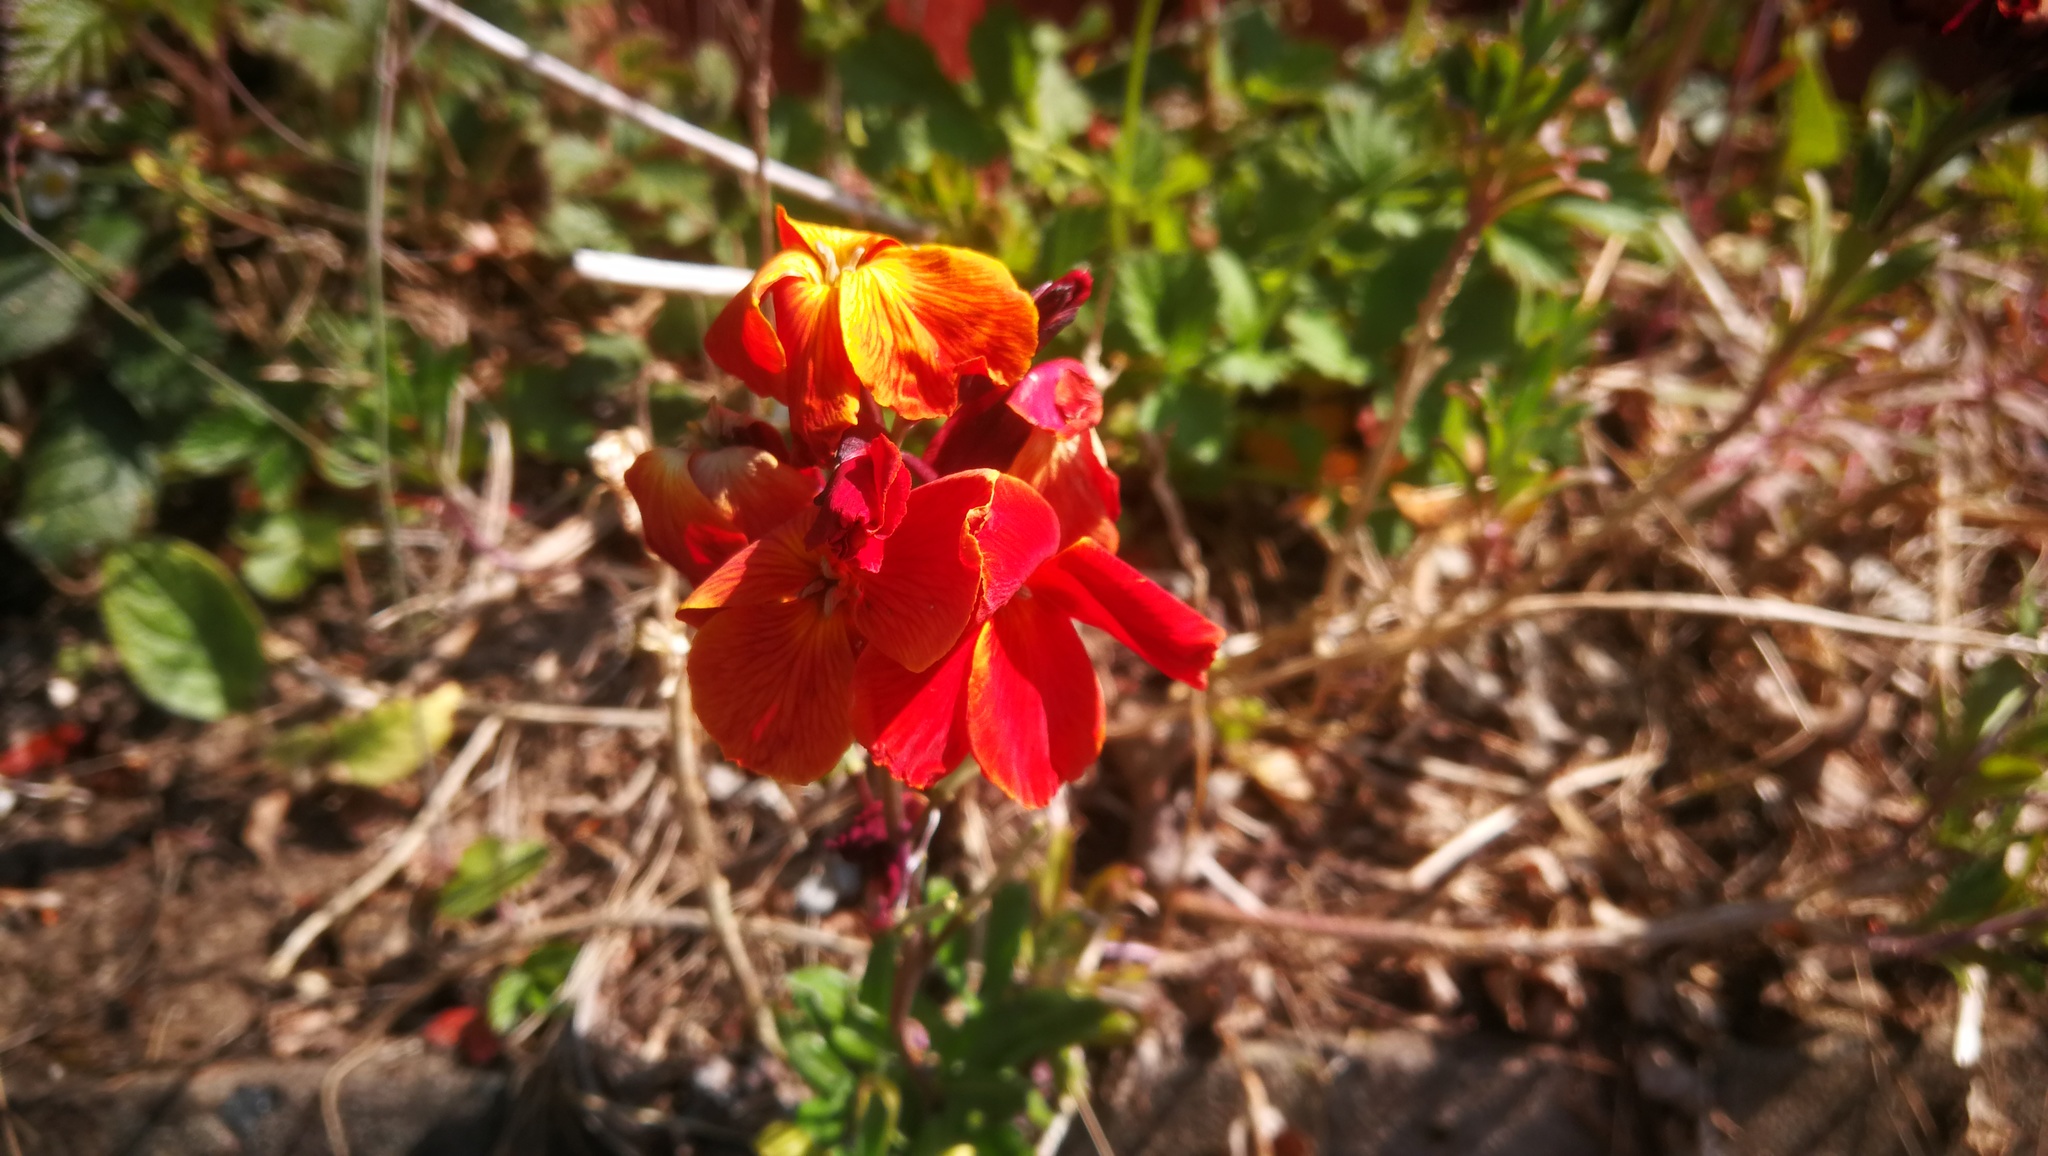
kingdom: Plantae
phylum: Tracheophyta
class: Magnoliopsida
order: Brassicales
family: Brassicaceae
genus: Erysimum
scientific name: Erysimum cheiri
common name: Wallflower
